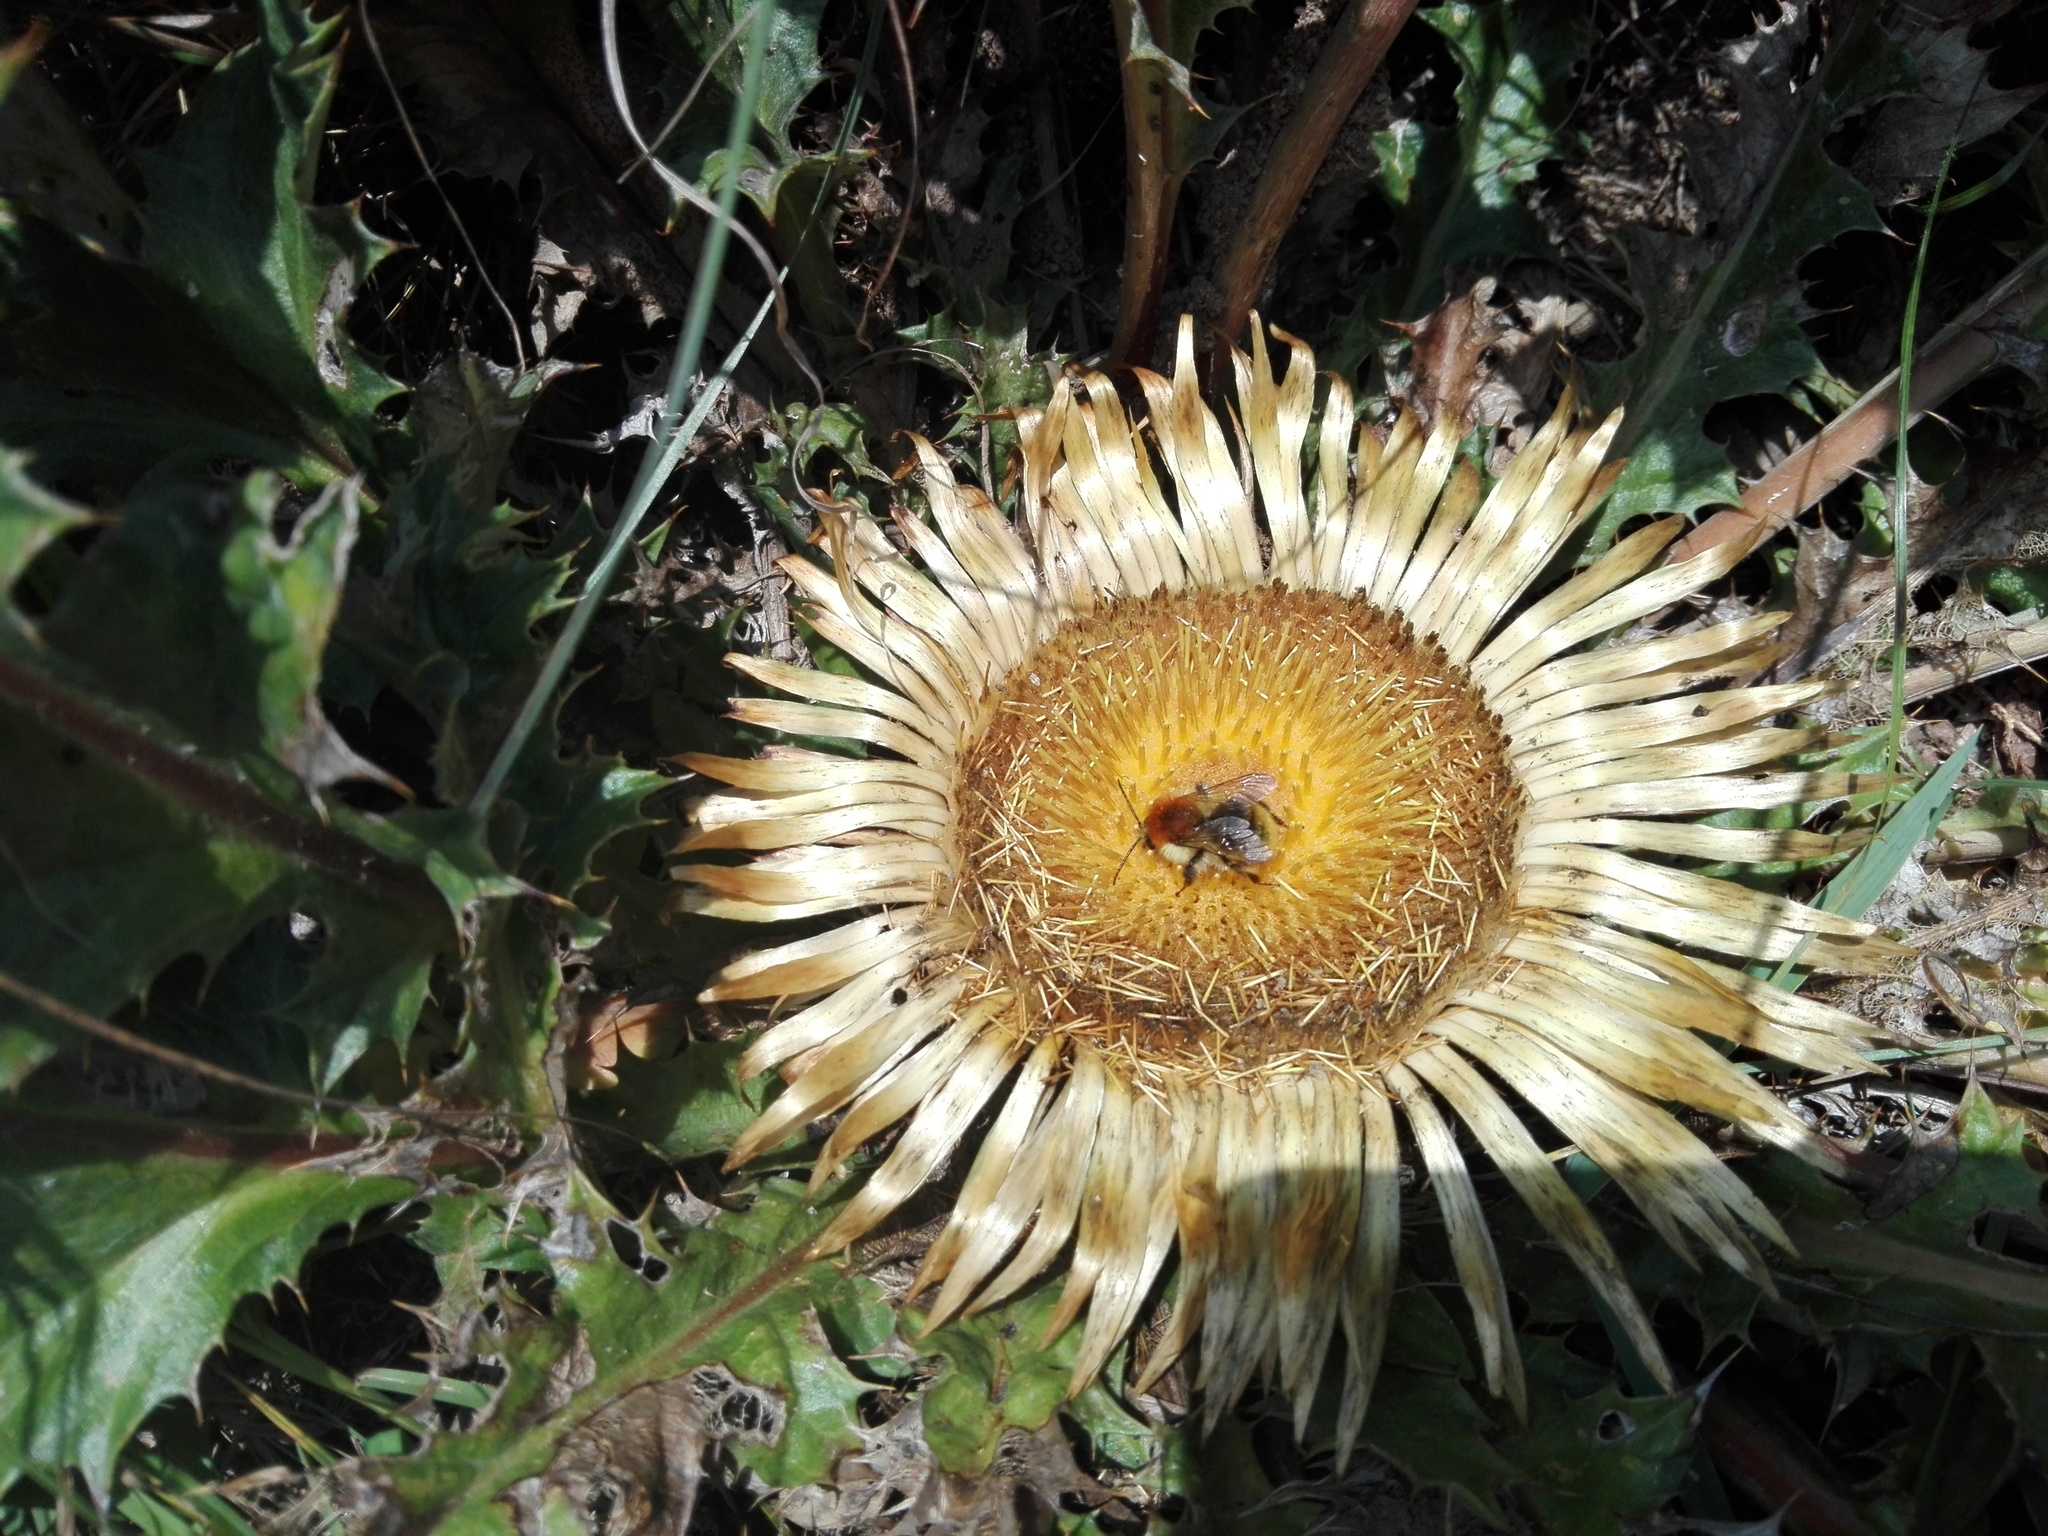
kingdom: Plantae
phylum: Tracheophyta
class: Magnoliopsida
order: Asterales
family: Asteraceae
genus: Carlina
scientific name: Carlina acanthifolia
